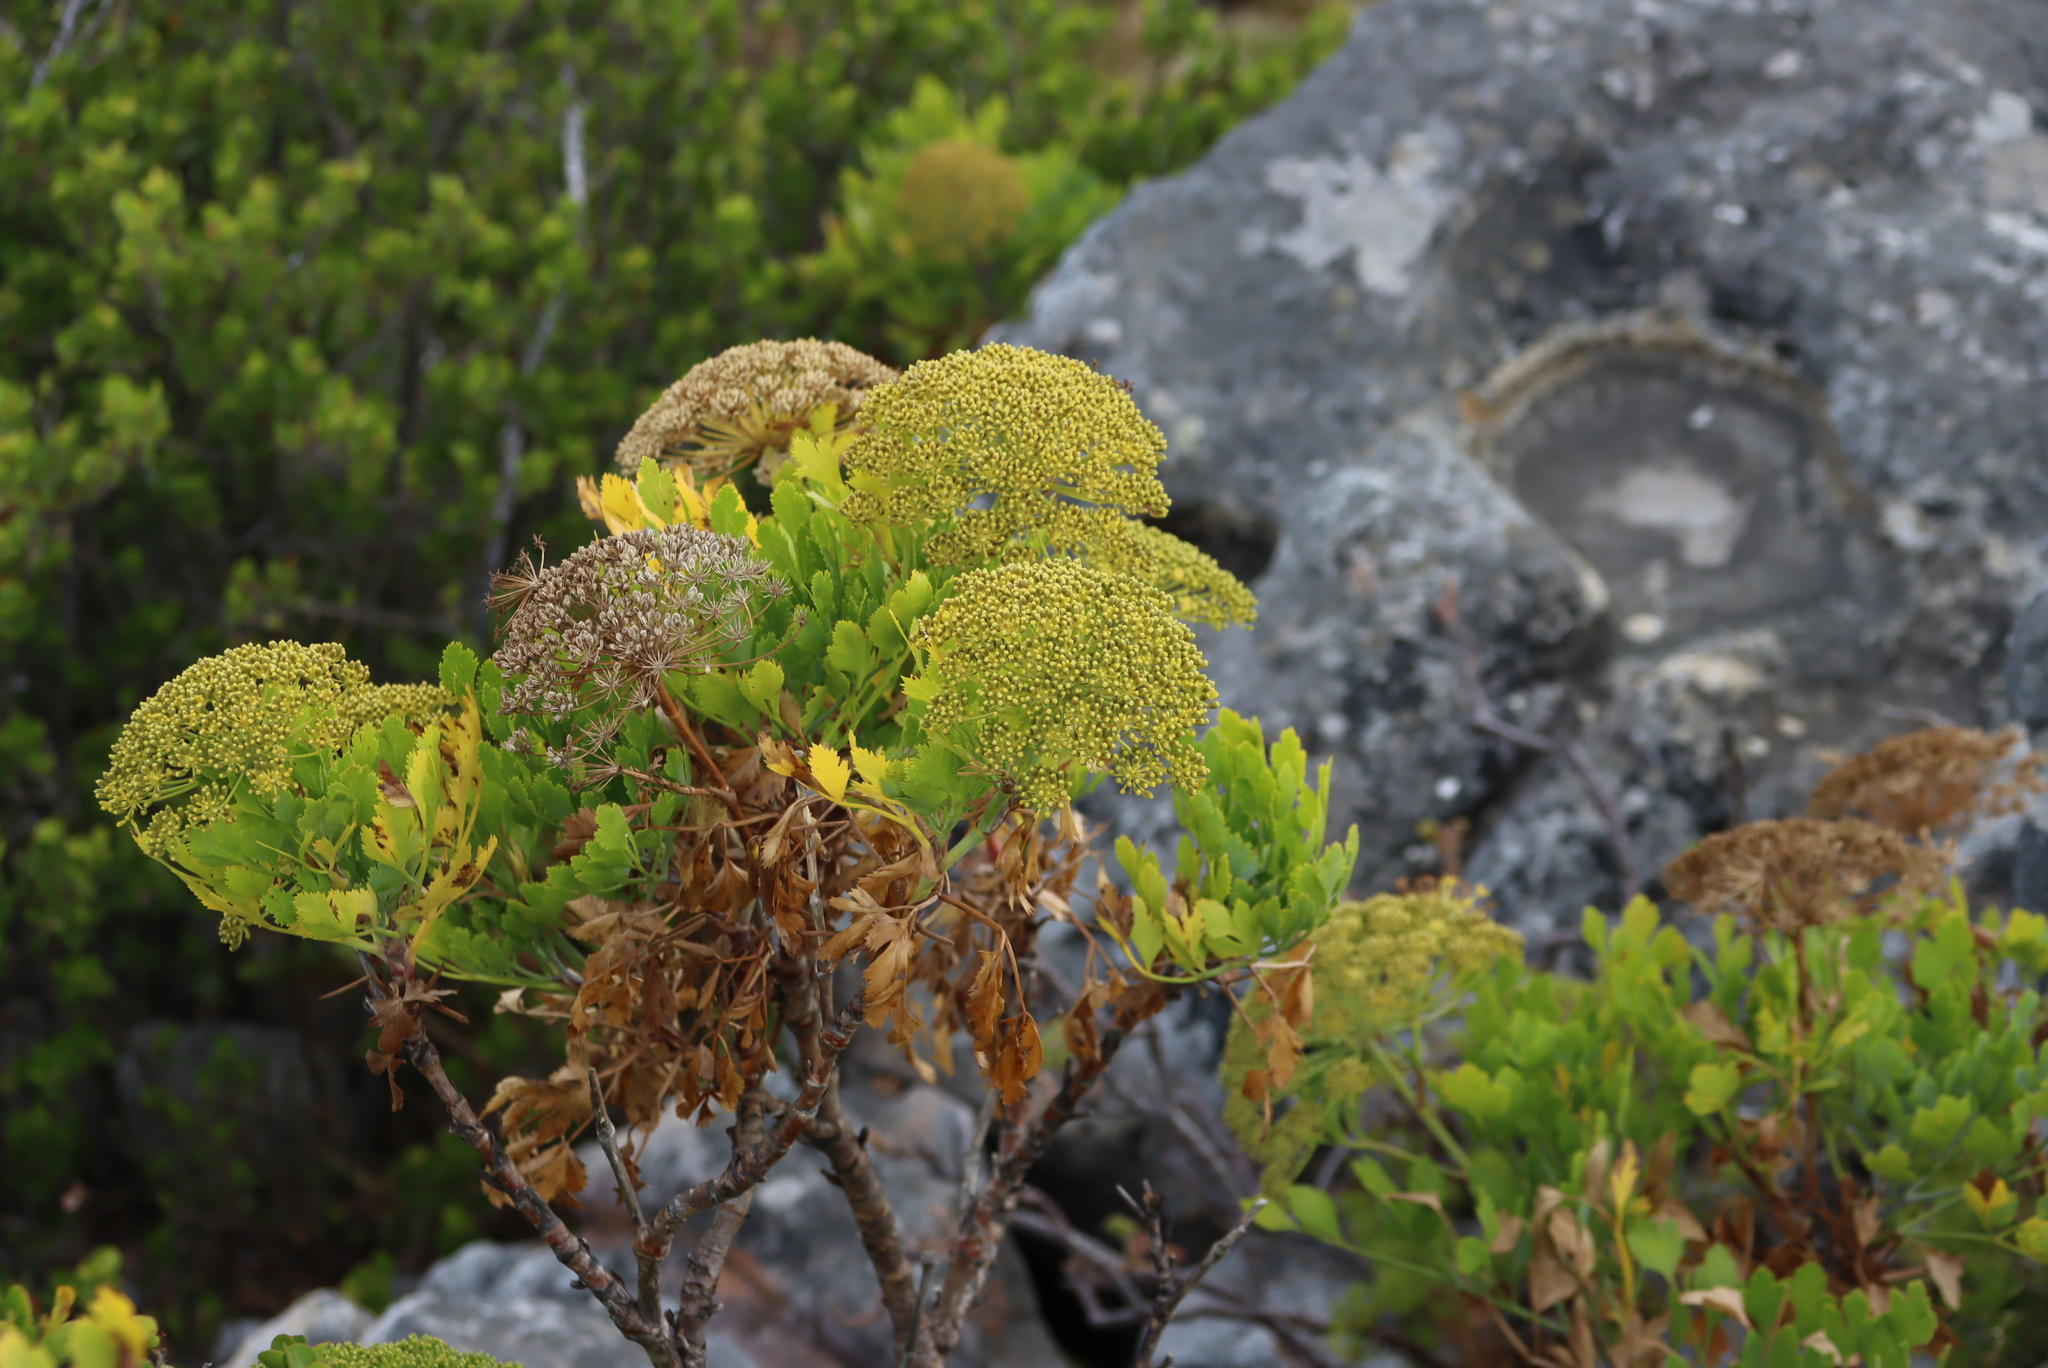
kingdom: Plantae
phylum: Tracheophyta
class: Magnoliopsida
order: Apiales
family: Apiaceae
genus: Notobubon
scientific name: Notobubon galbanum
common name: Blisterbush
